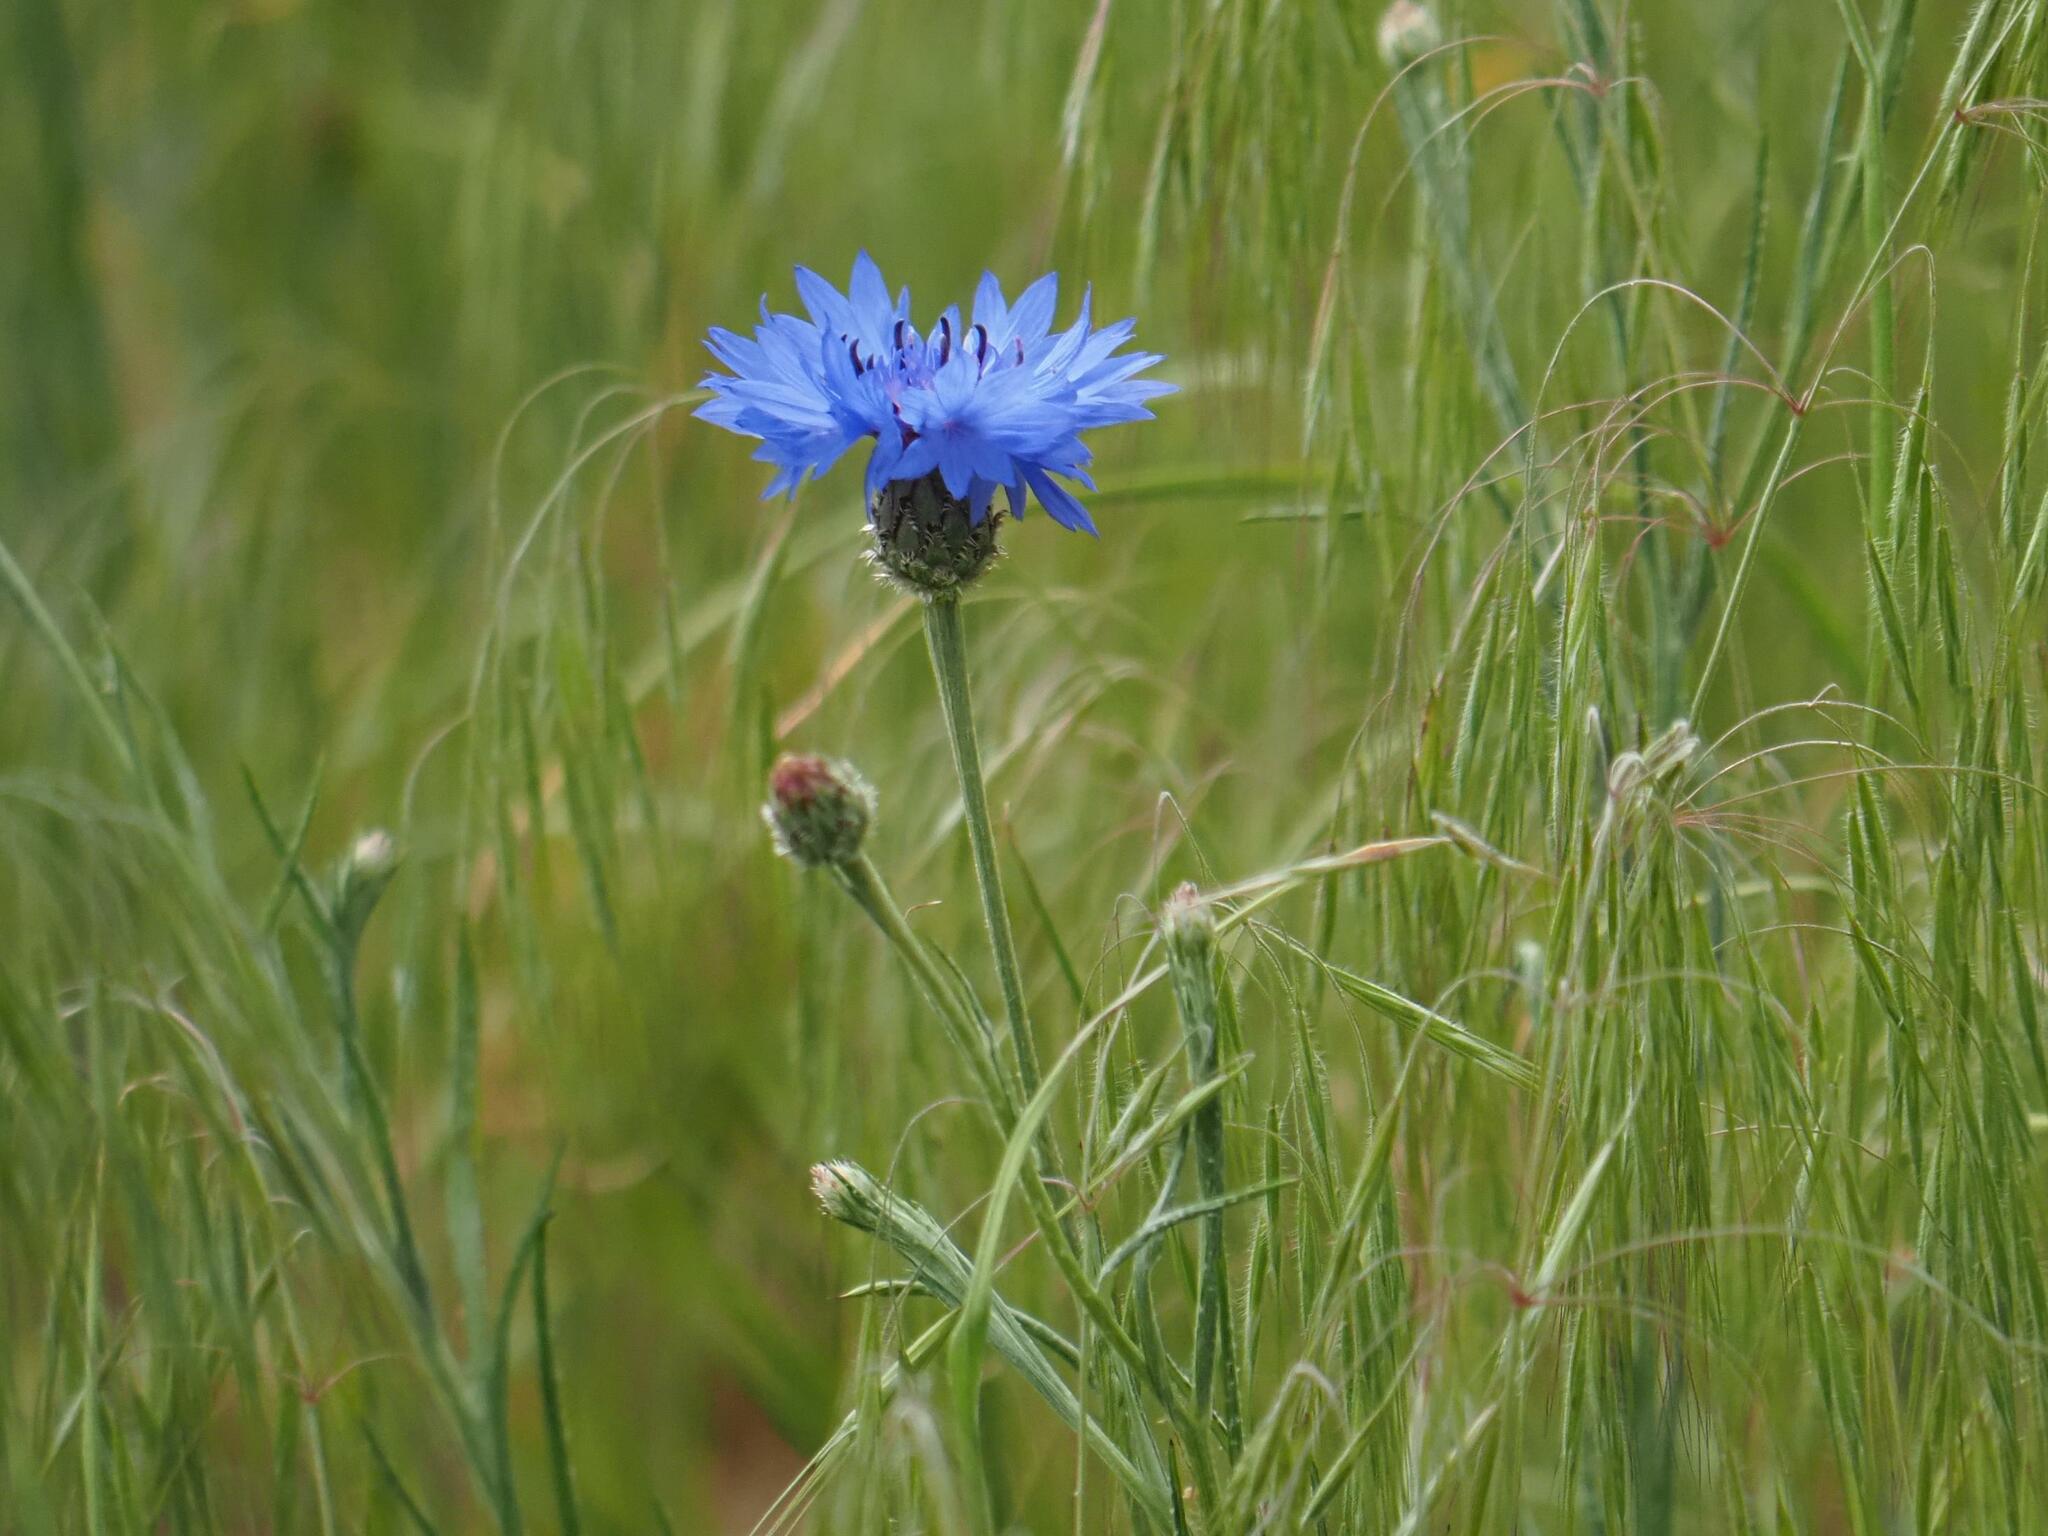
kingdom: Plantae
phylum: Tracheophyta
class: Magnoliopsida
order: Asterales
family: Asteraceae
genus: Centaurea
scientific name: Centaurea cyanus
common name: Cornflower
